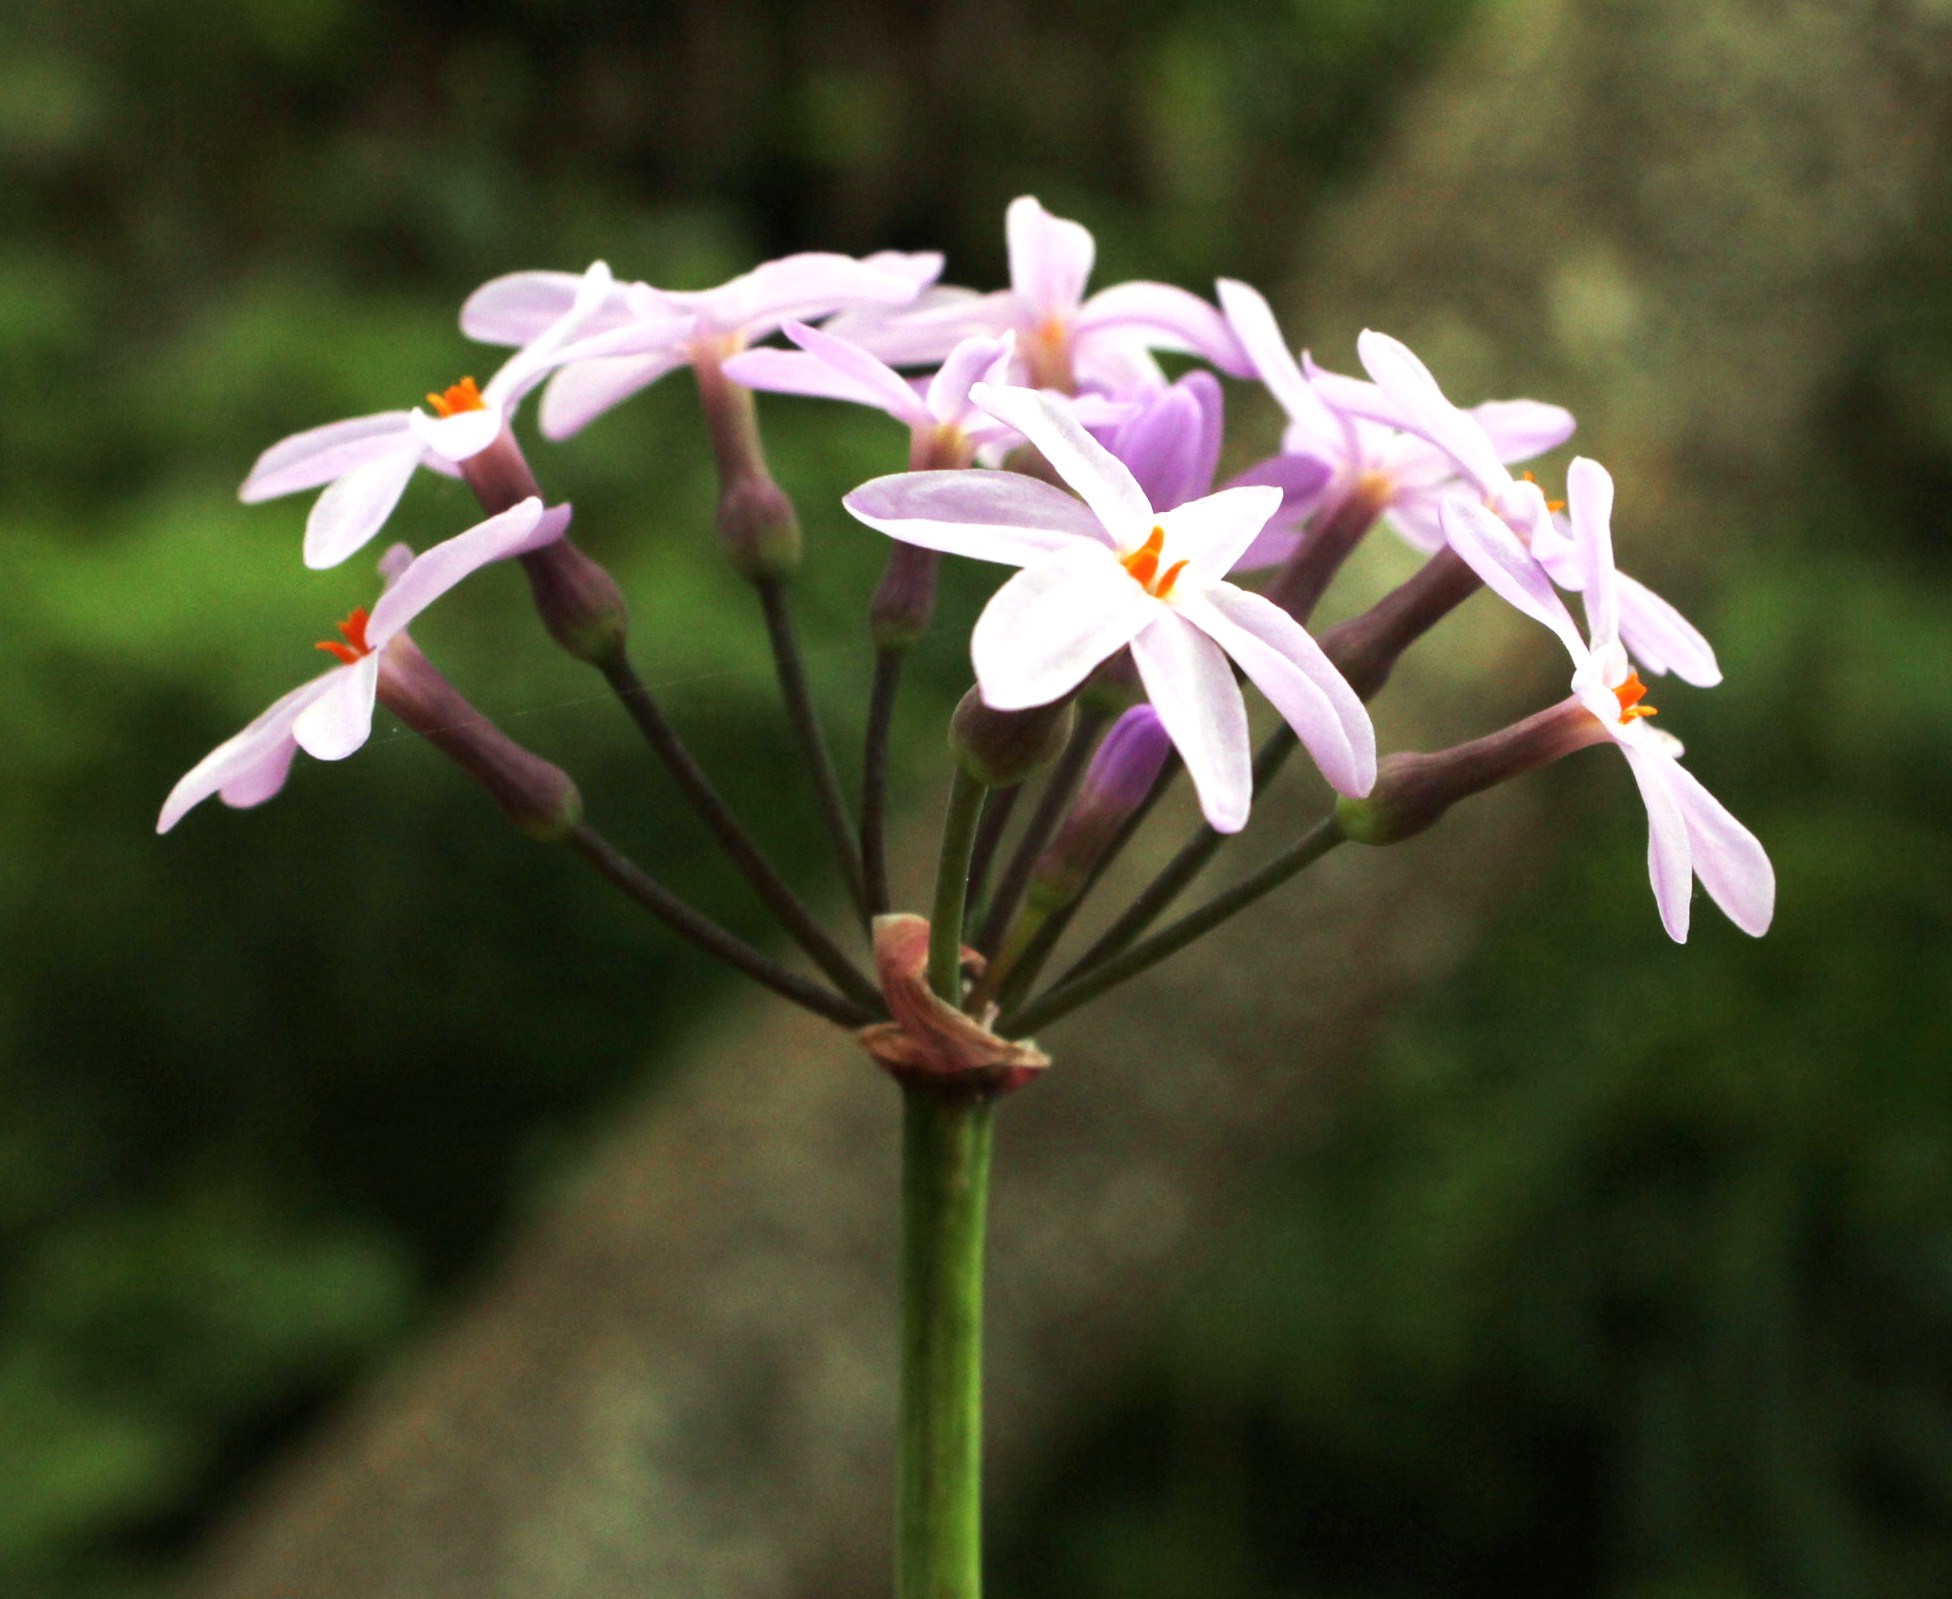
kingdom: Plantae
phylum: Tracheophyta
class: Liliopsida
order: Asparagales
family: Amaryllidaceae
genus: Tulbaghia
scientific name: Tulbaghia maritima
